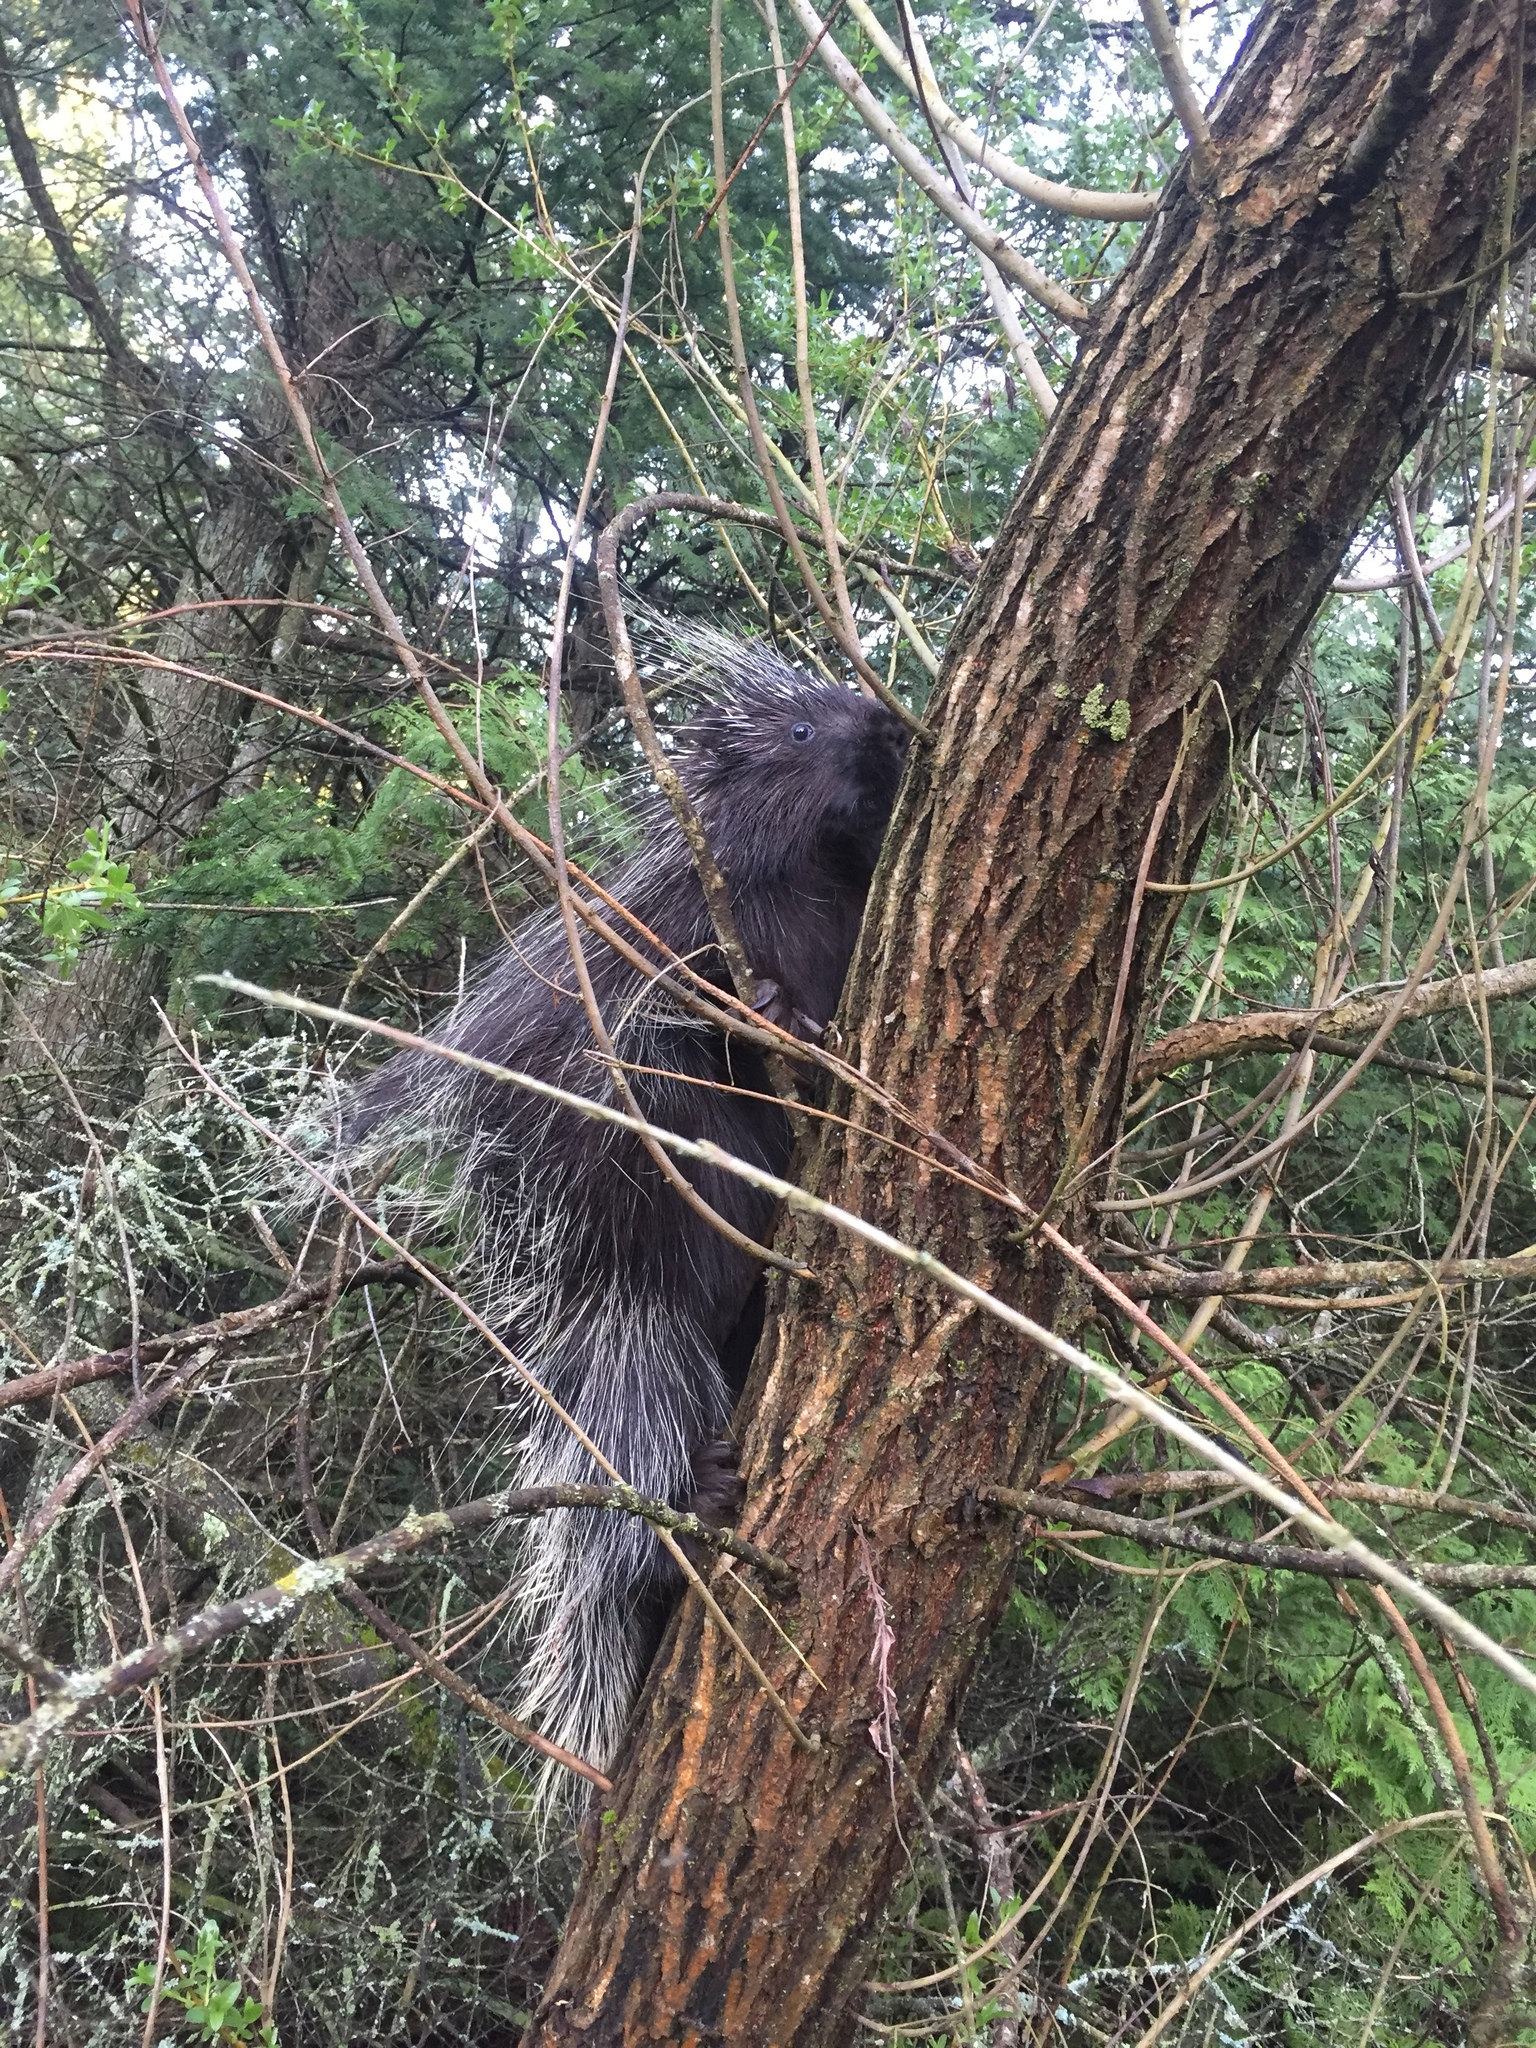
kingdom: Animalia
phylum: Chordata
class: Mammalia
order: Rodentia
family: Erethizontidae
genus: Erethizon
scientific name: Erethizon dorsatus
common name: North american porcupine
